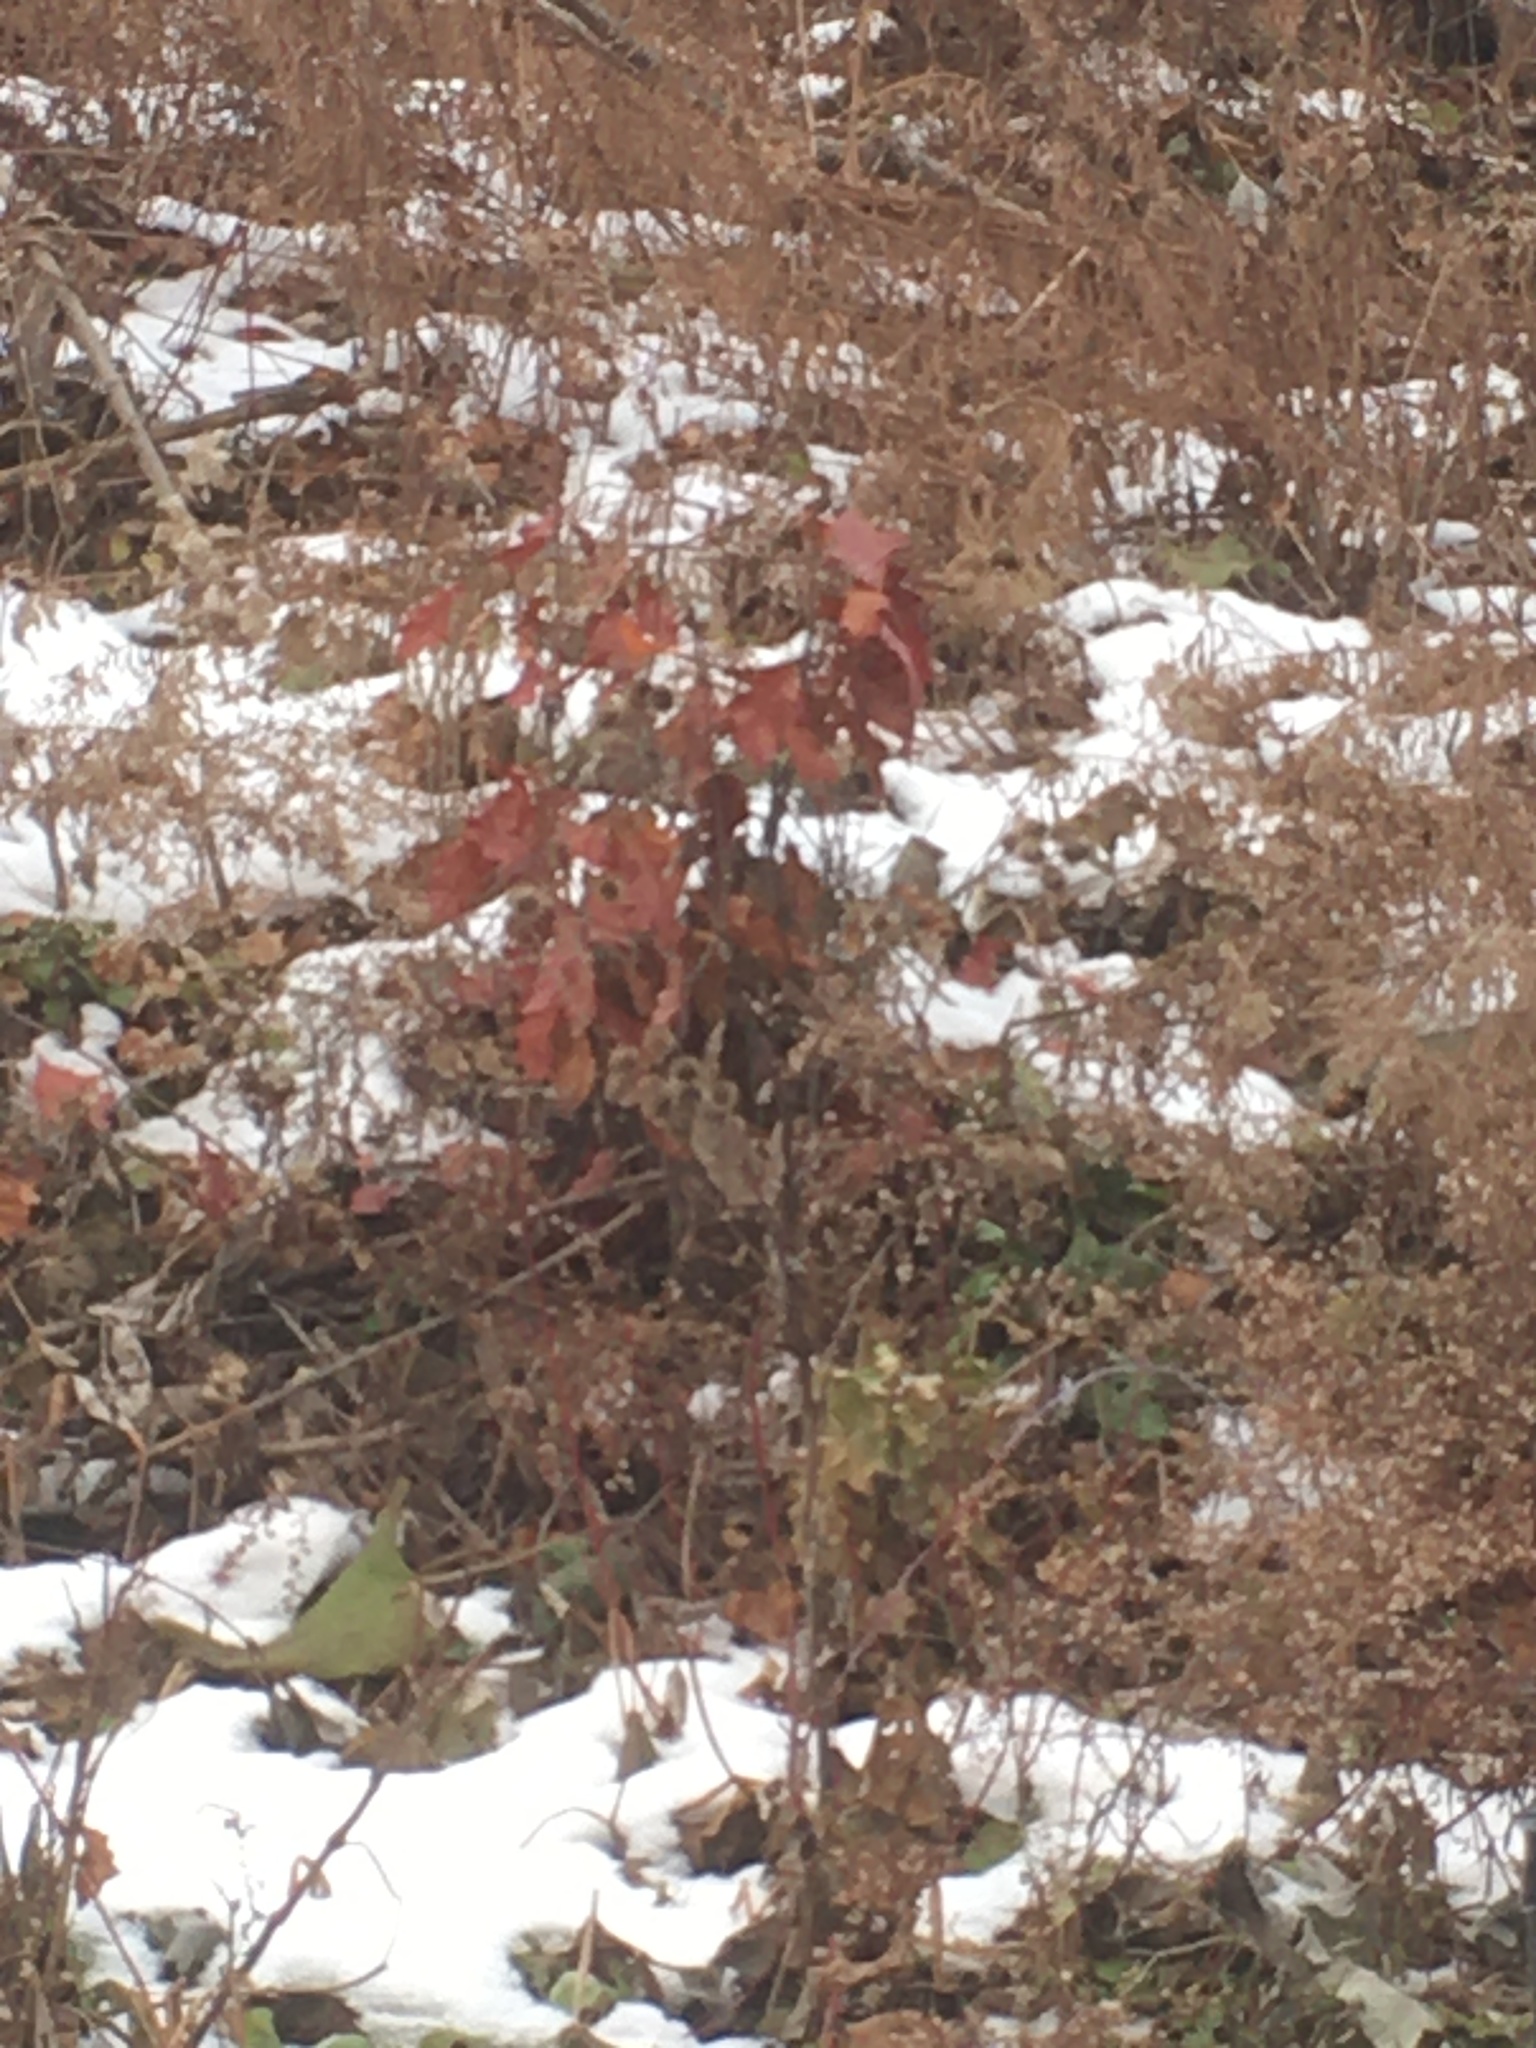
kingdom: Plantae
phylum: Tracheophyta
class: Magnoliopsida
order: Fagales
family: Fagaceae
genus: Quercus
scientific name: Quercus rubra
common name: Red oak
